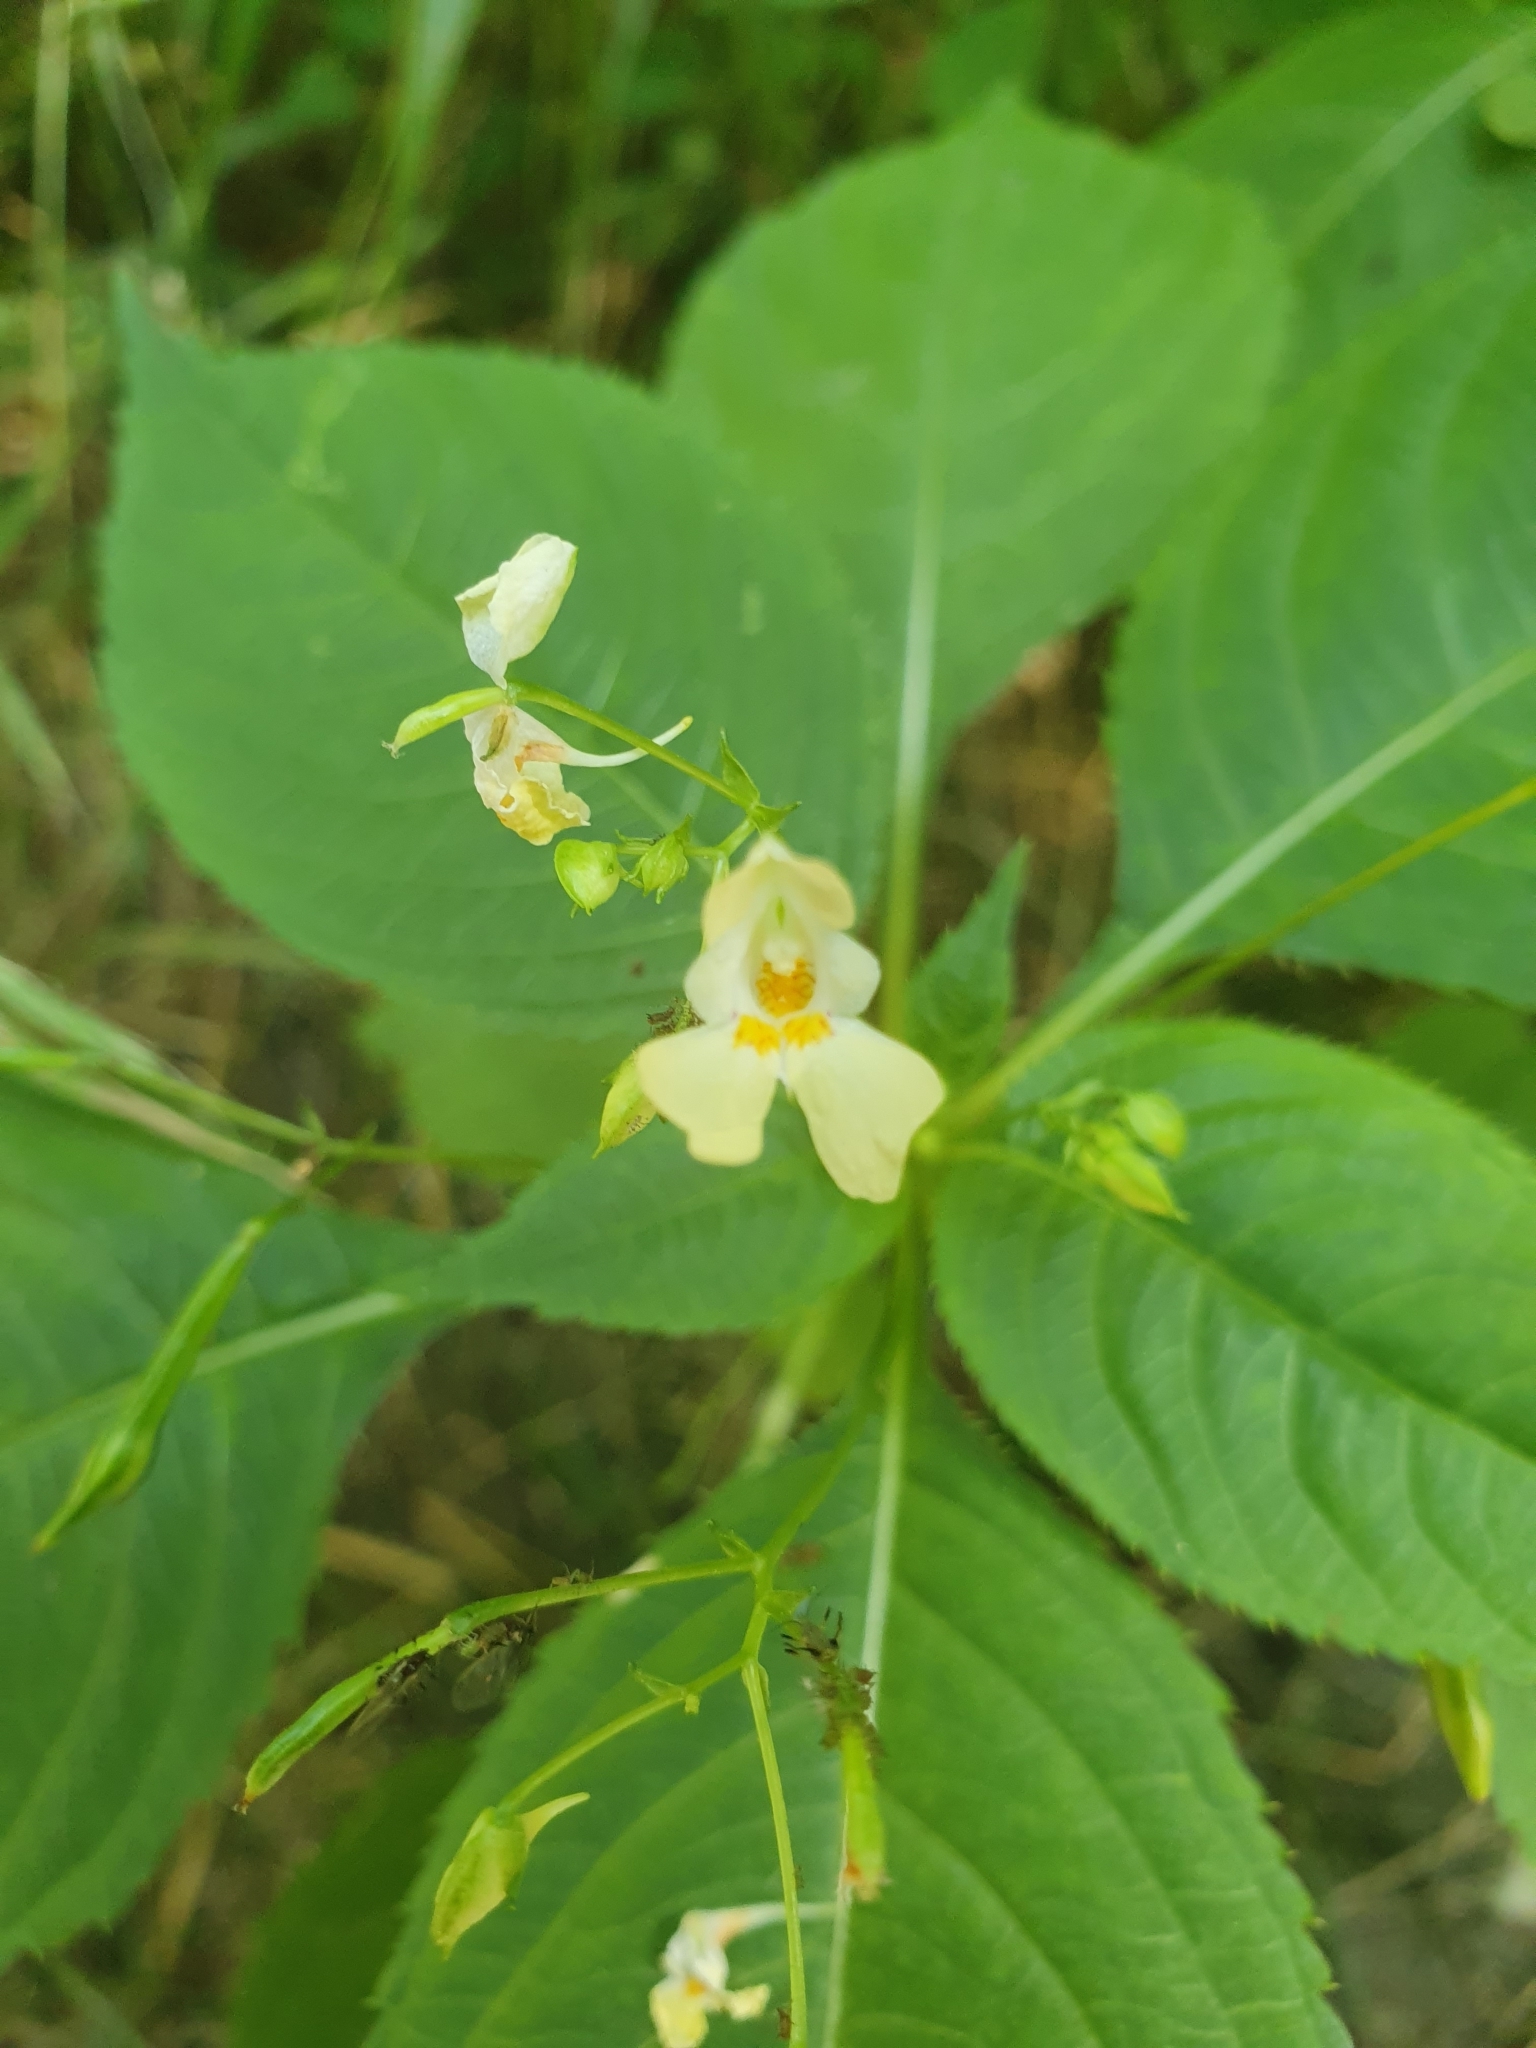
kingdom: Plantae
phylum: Tracheophyta
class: Magnoliopsida
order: Ericales
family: Balsaminaceae
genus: Impatiens
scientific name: Impatiens parviflora
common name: Small balsam
